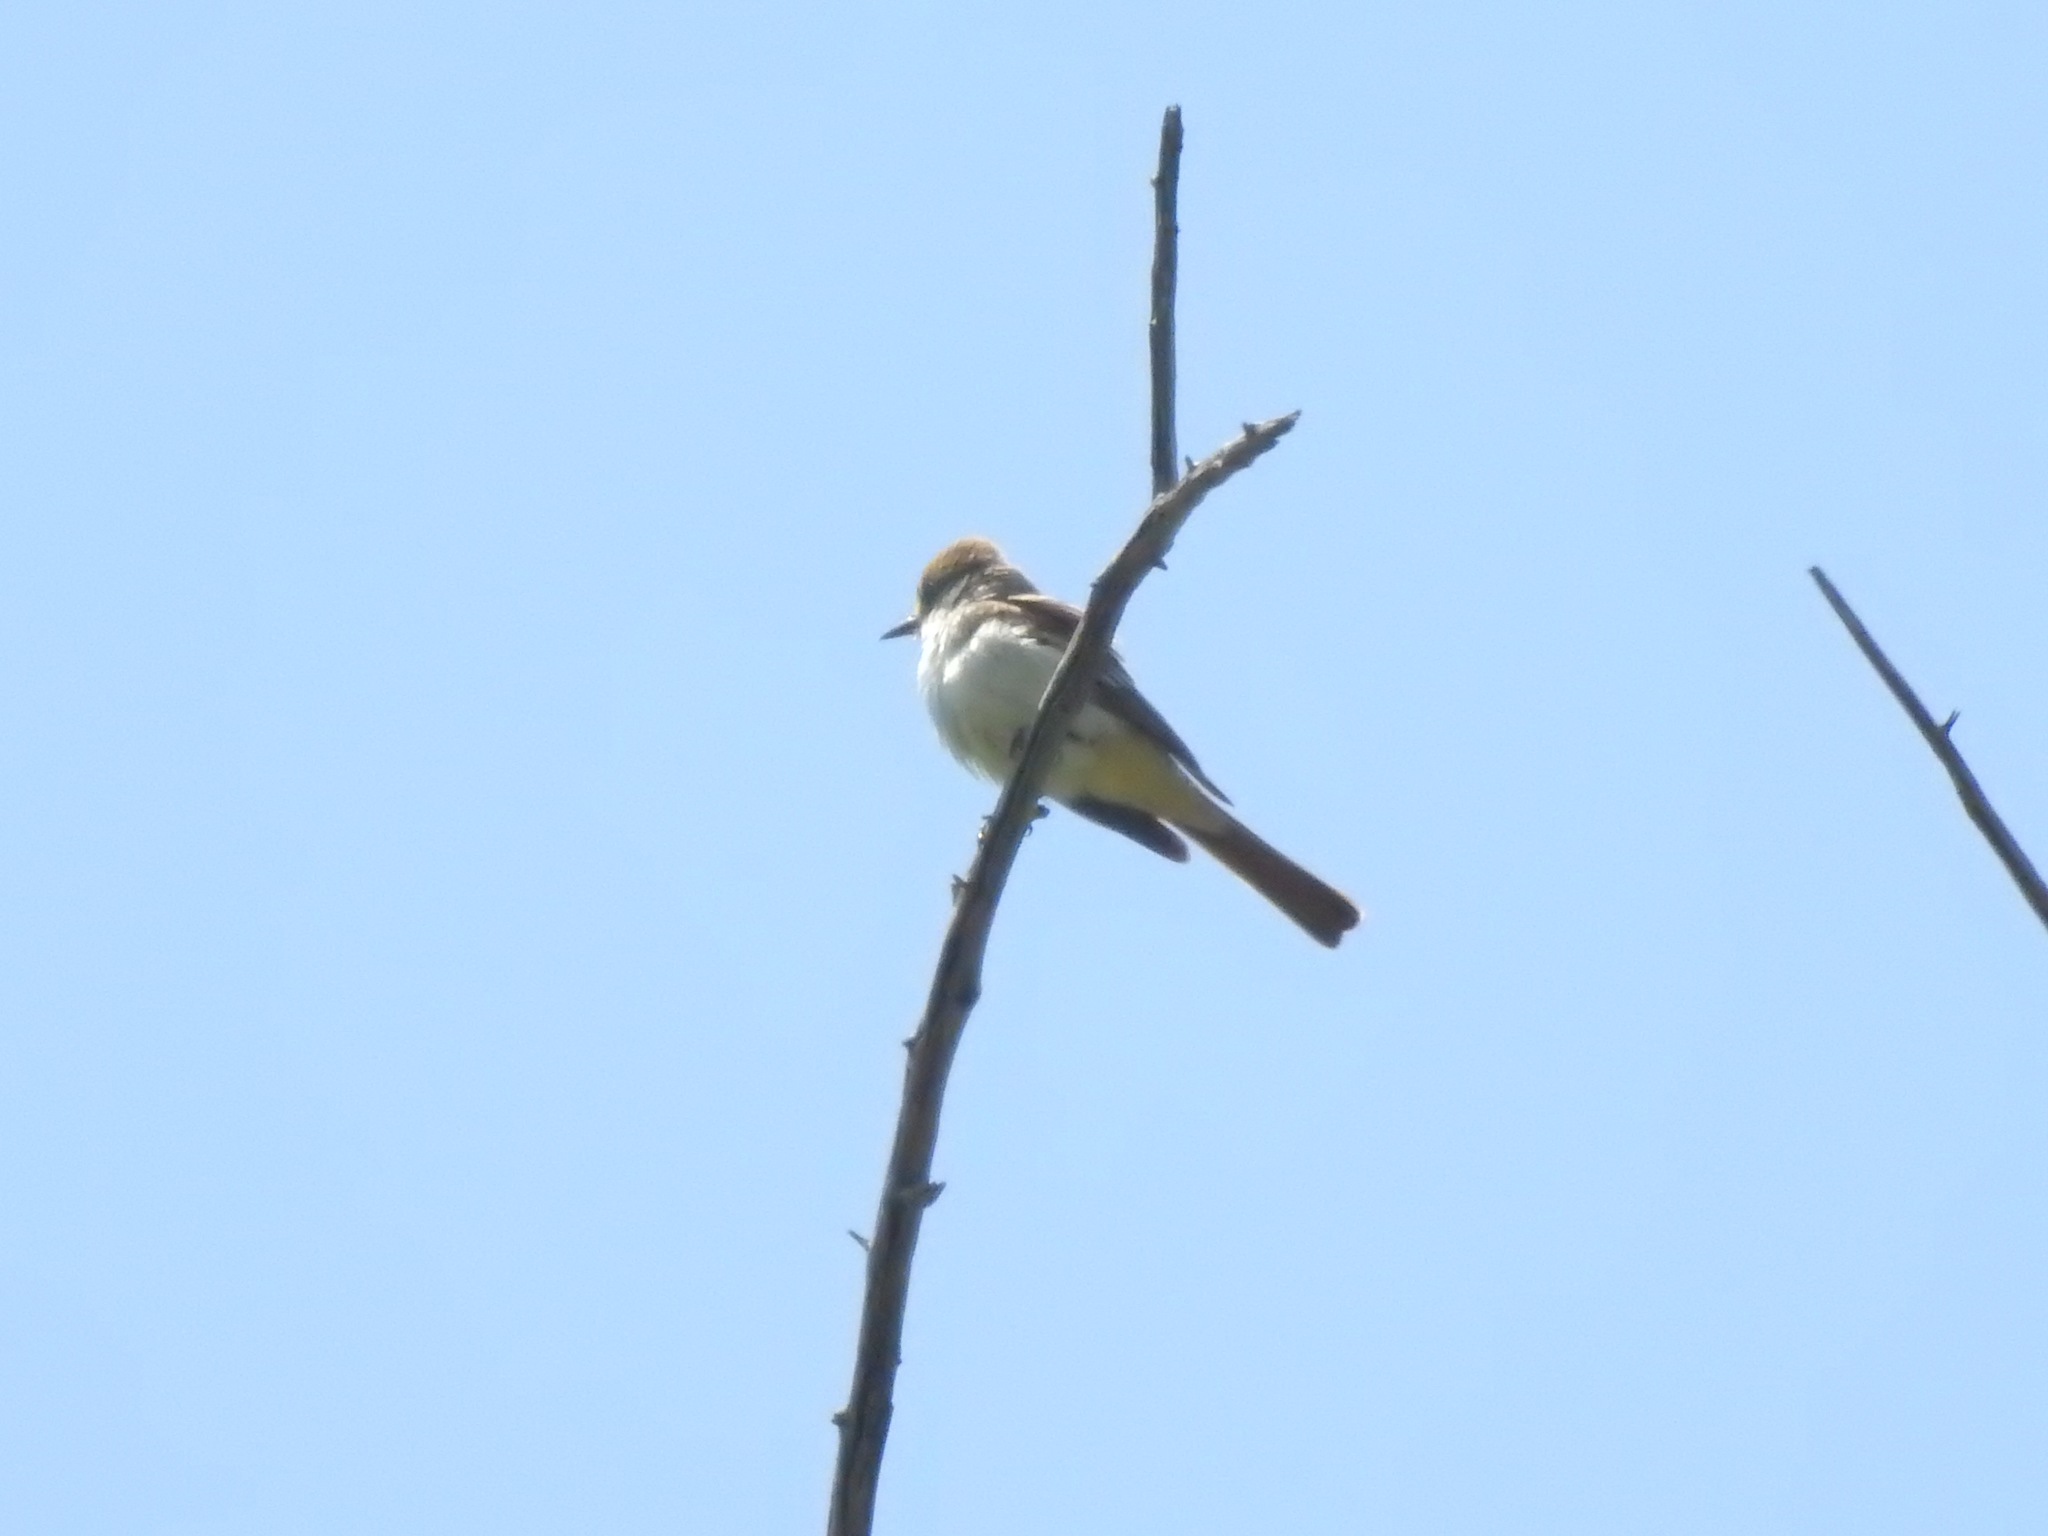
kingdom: Animalia
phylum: Chordata
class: Aves
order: Passeriformes
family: Tyrannidae
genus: Myiarchus
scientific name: Myiarchus cinerascens
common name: Ash-throated flycatcher
